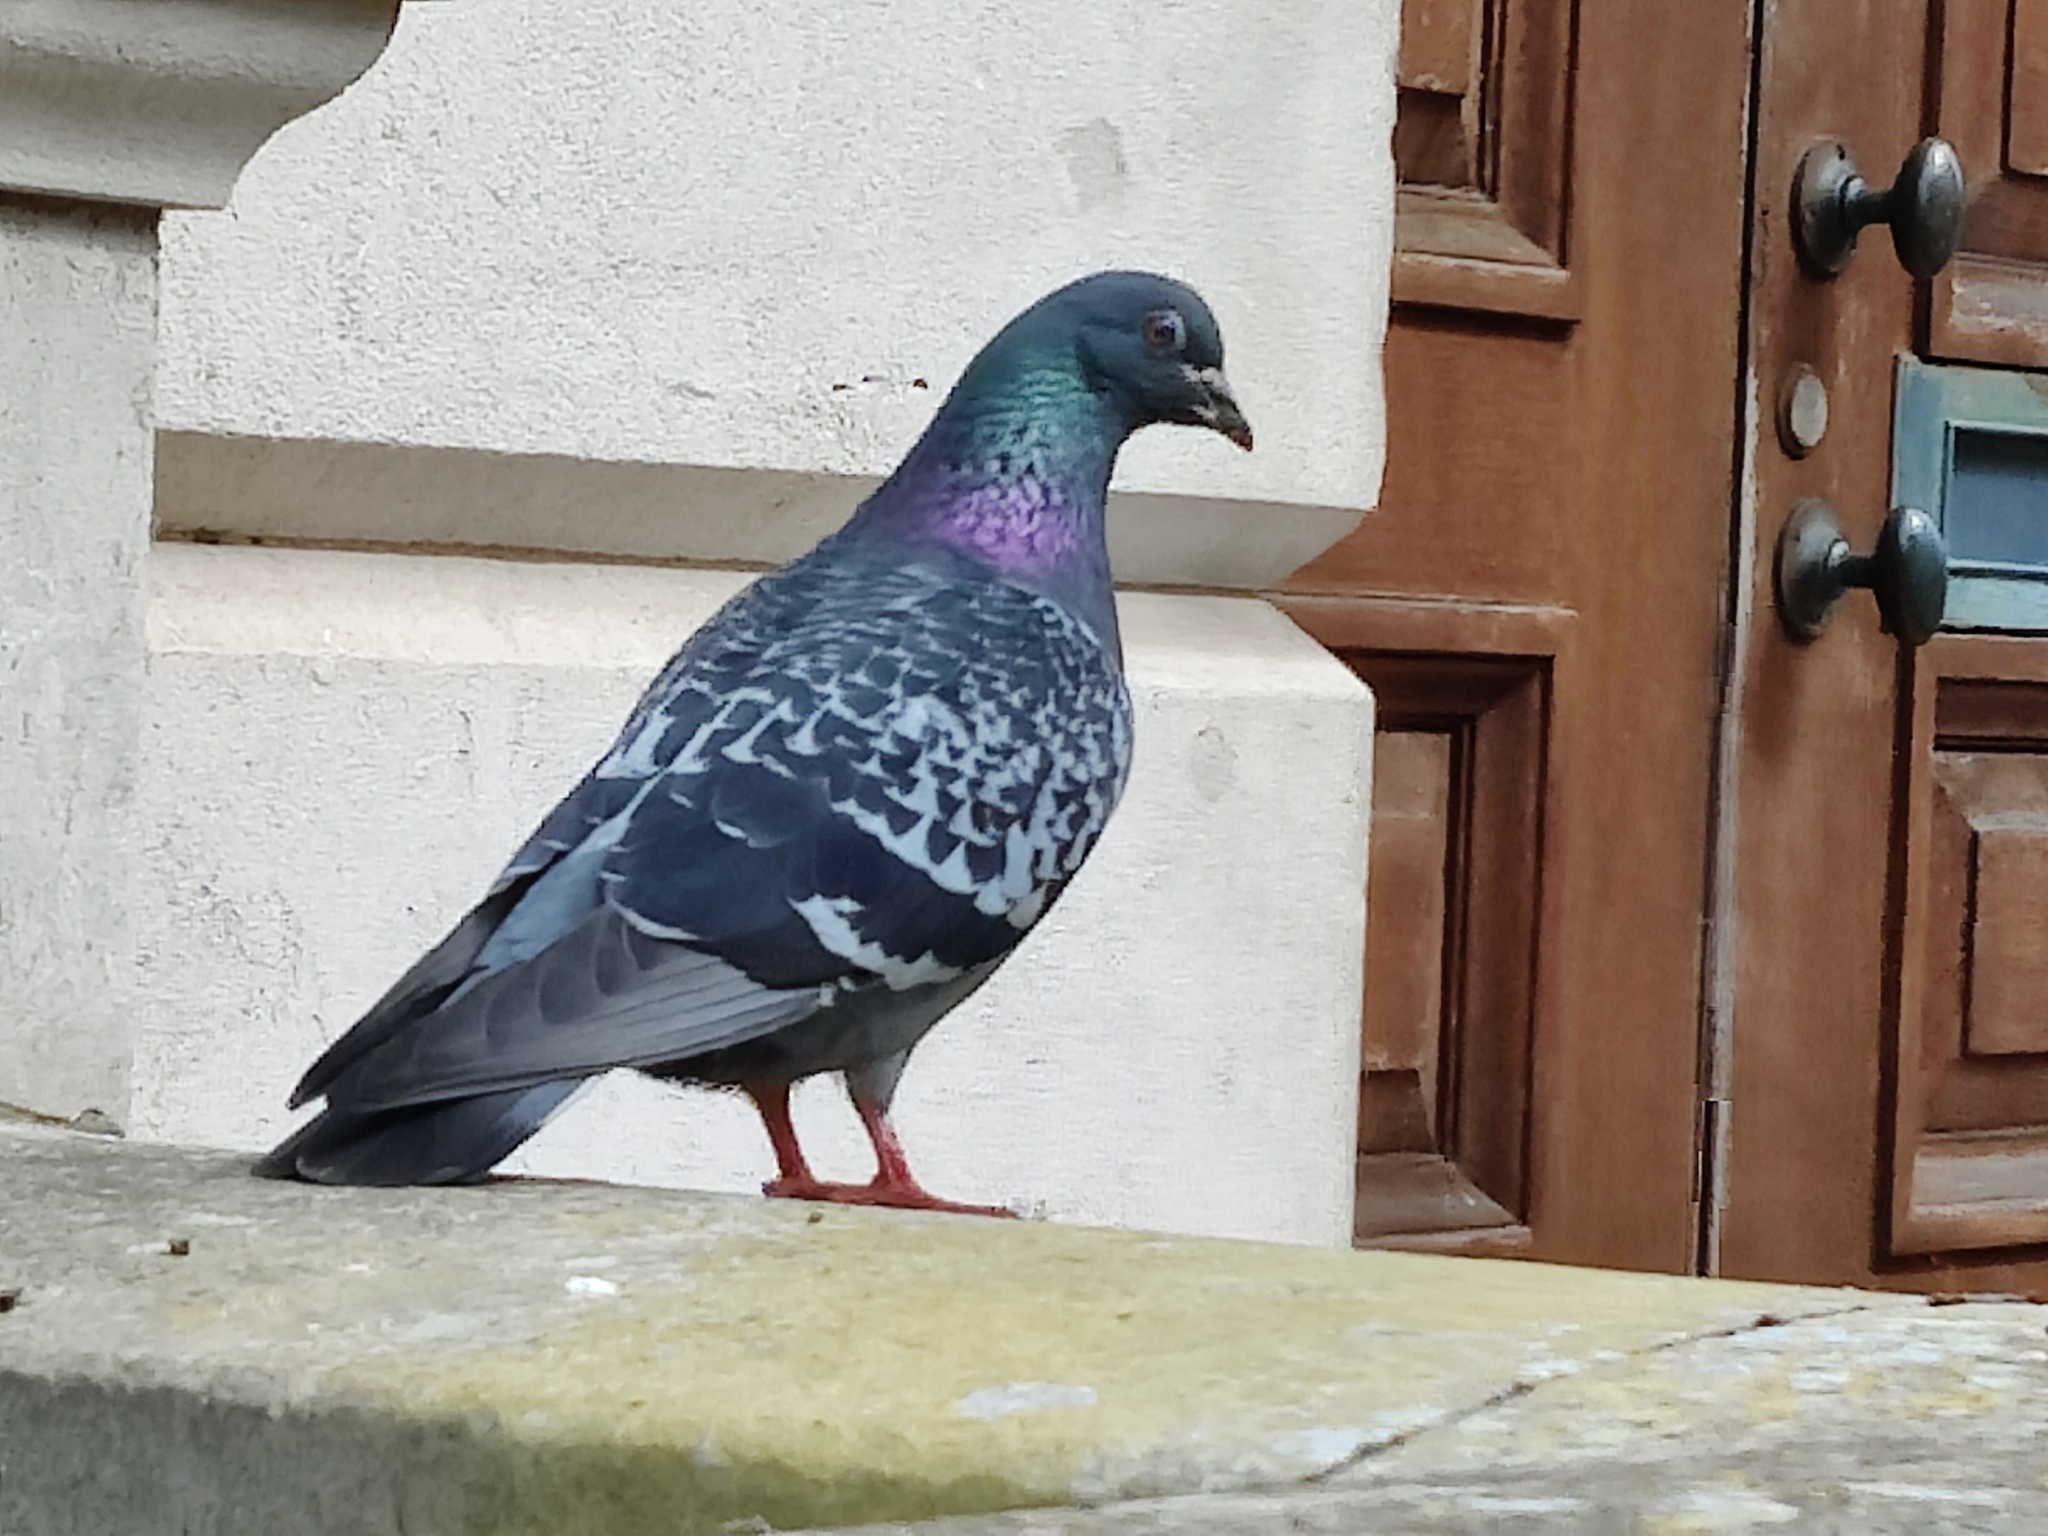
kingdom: Animalia
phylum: Chordata
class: Aves
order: Columbiformes
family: Columbidae
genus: Columba
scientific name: Columba livia
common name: Rock pigeon
